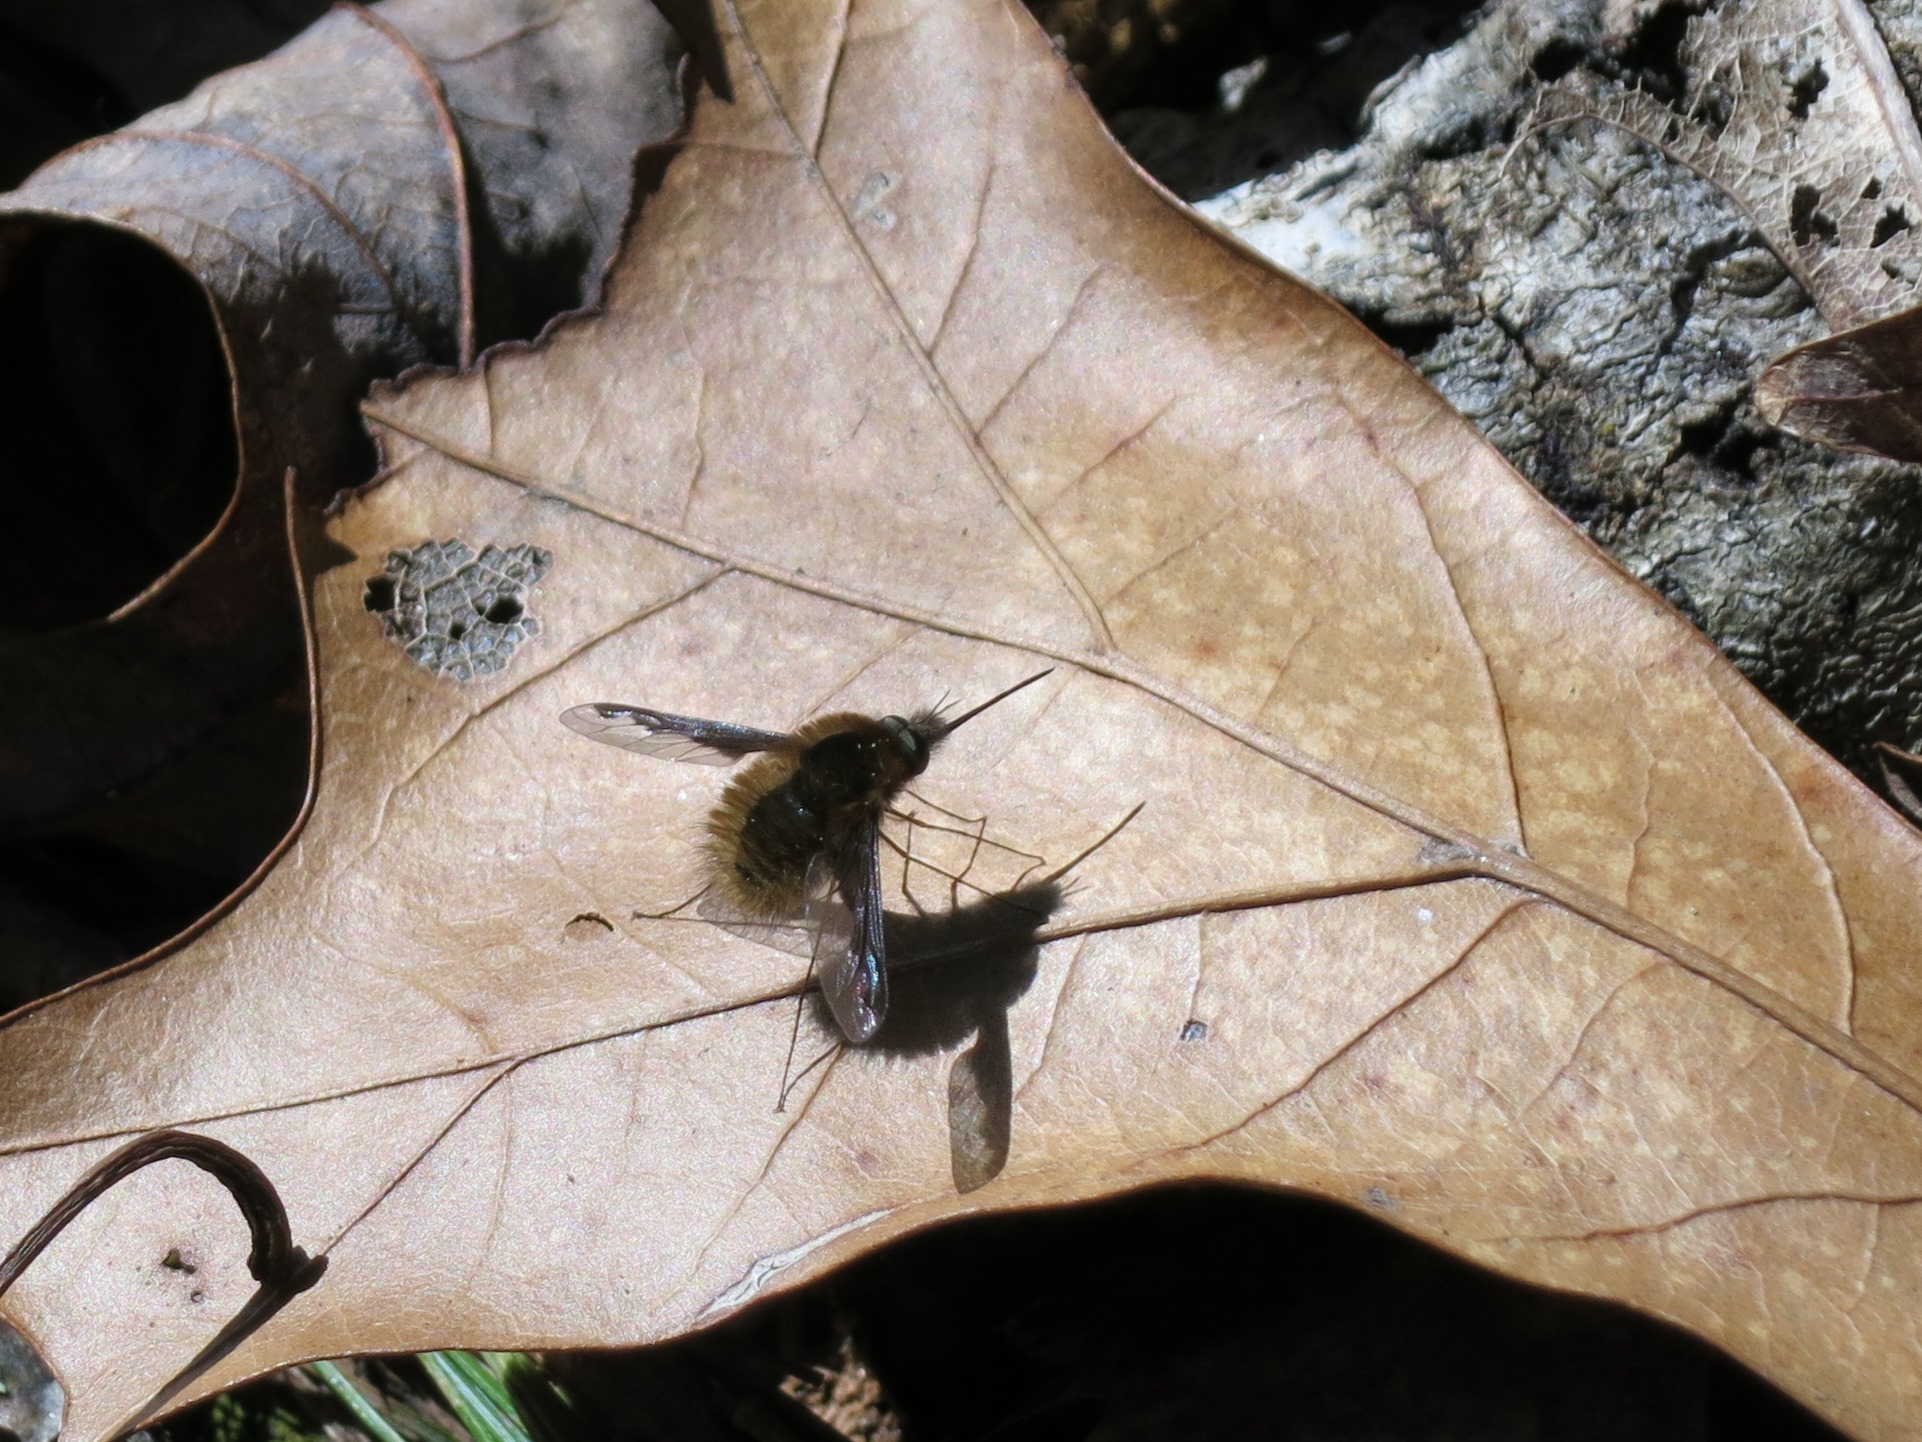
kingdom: Animalia
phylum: Arthropoda
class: Insecta
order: Diptera
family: Bombyliidae
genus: Bombylius
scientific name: Bombylius major
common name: Bee fly
